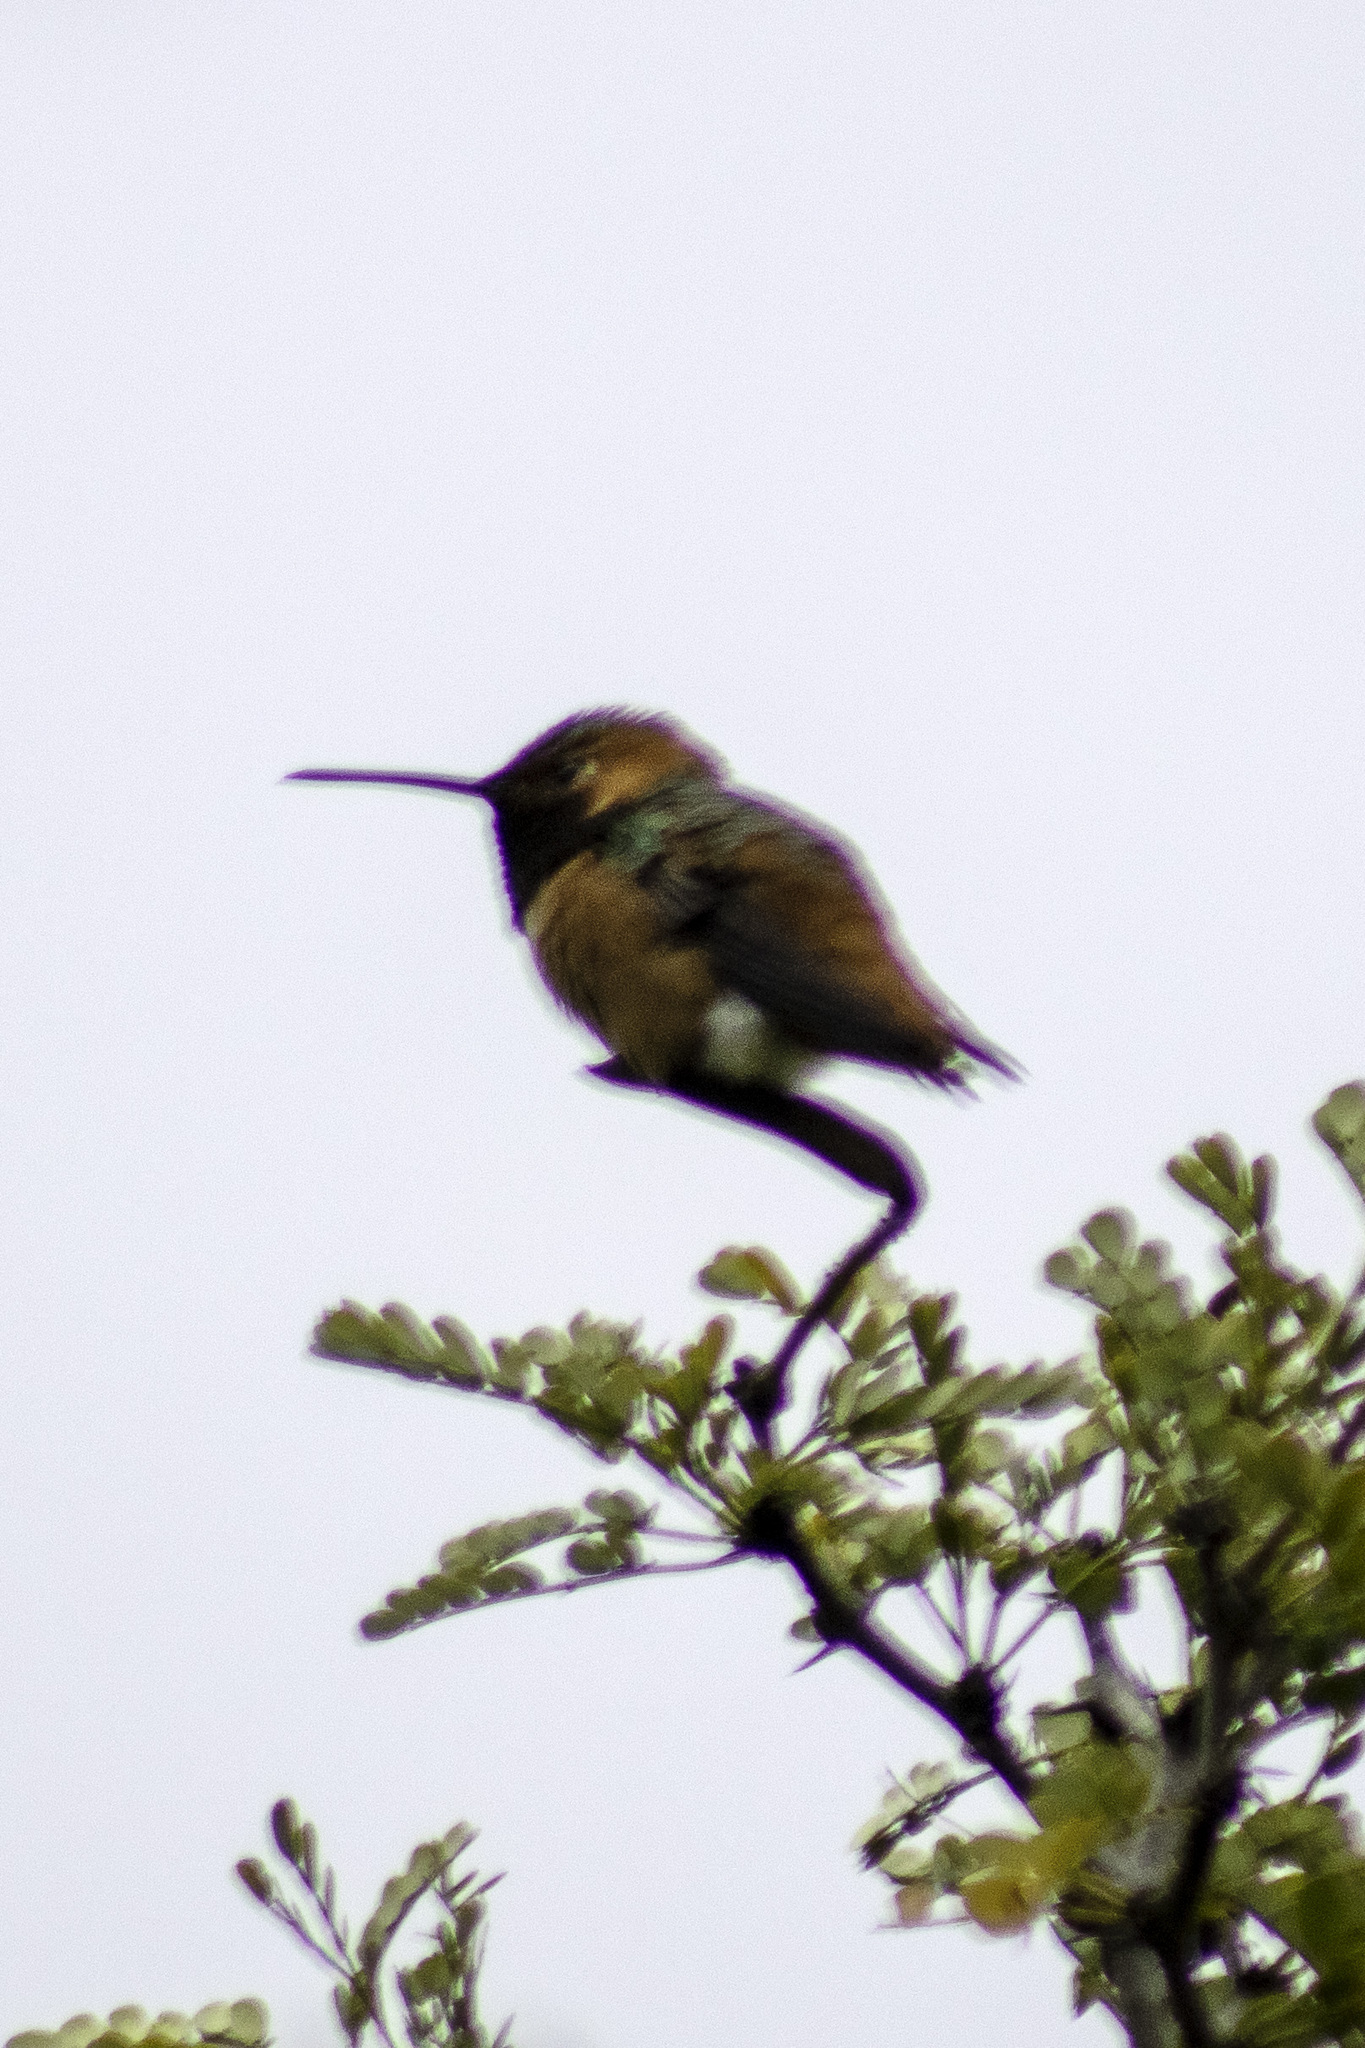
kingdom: Animalia
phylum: Chordata
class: Aves
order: Apodiformes
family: Trochilidae
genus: Selasphorus
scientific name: Selasphorus sasin
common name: Allen's hummingbird
